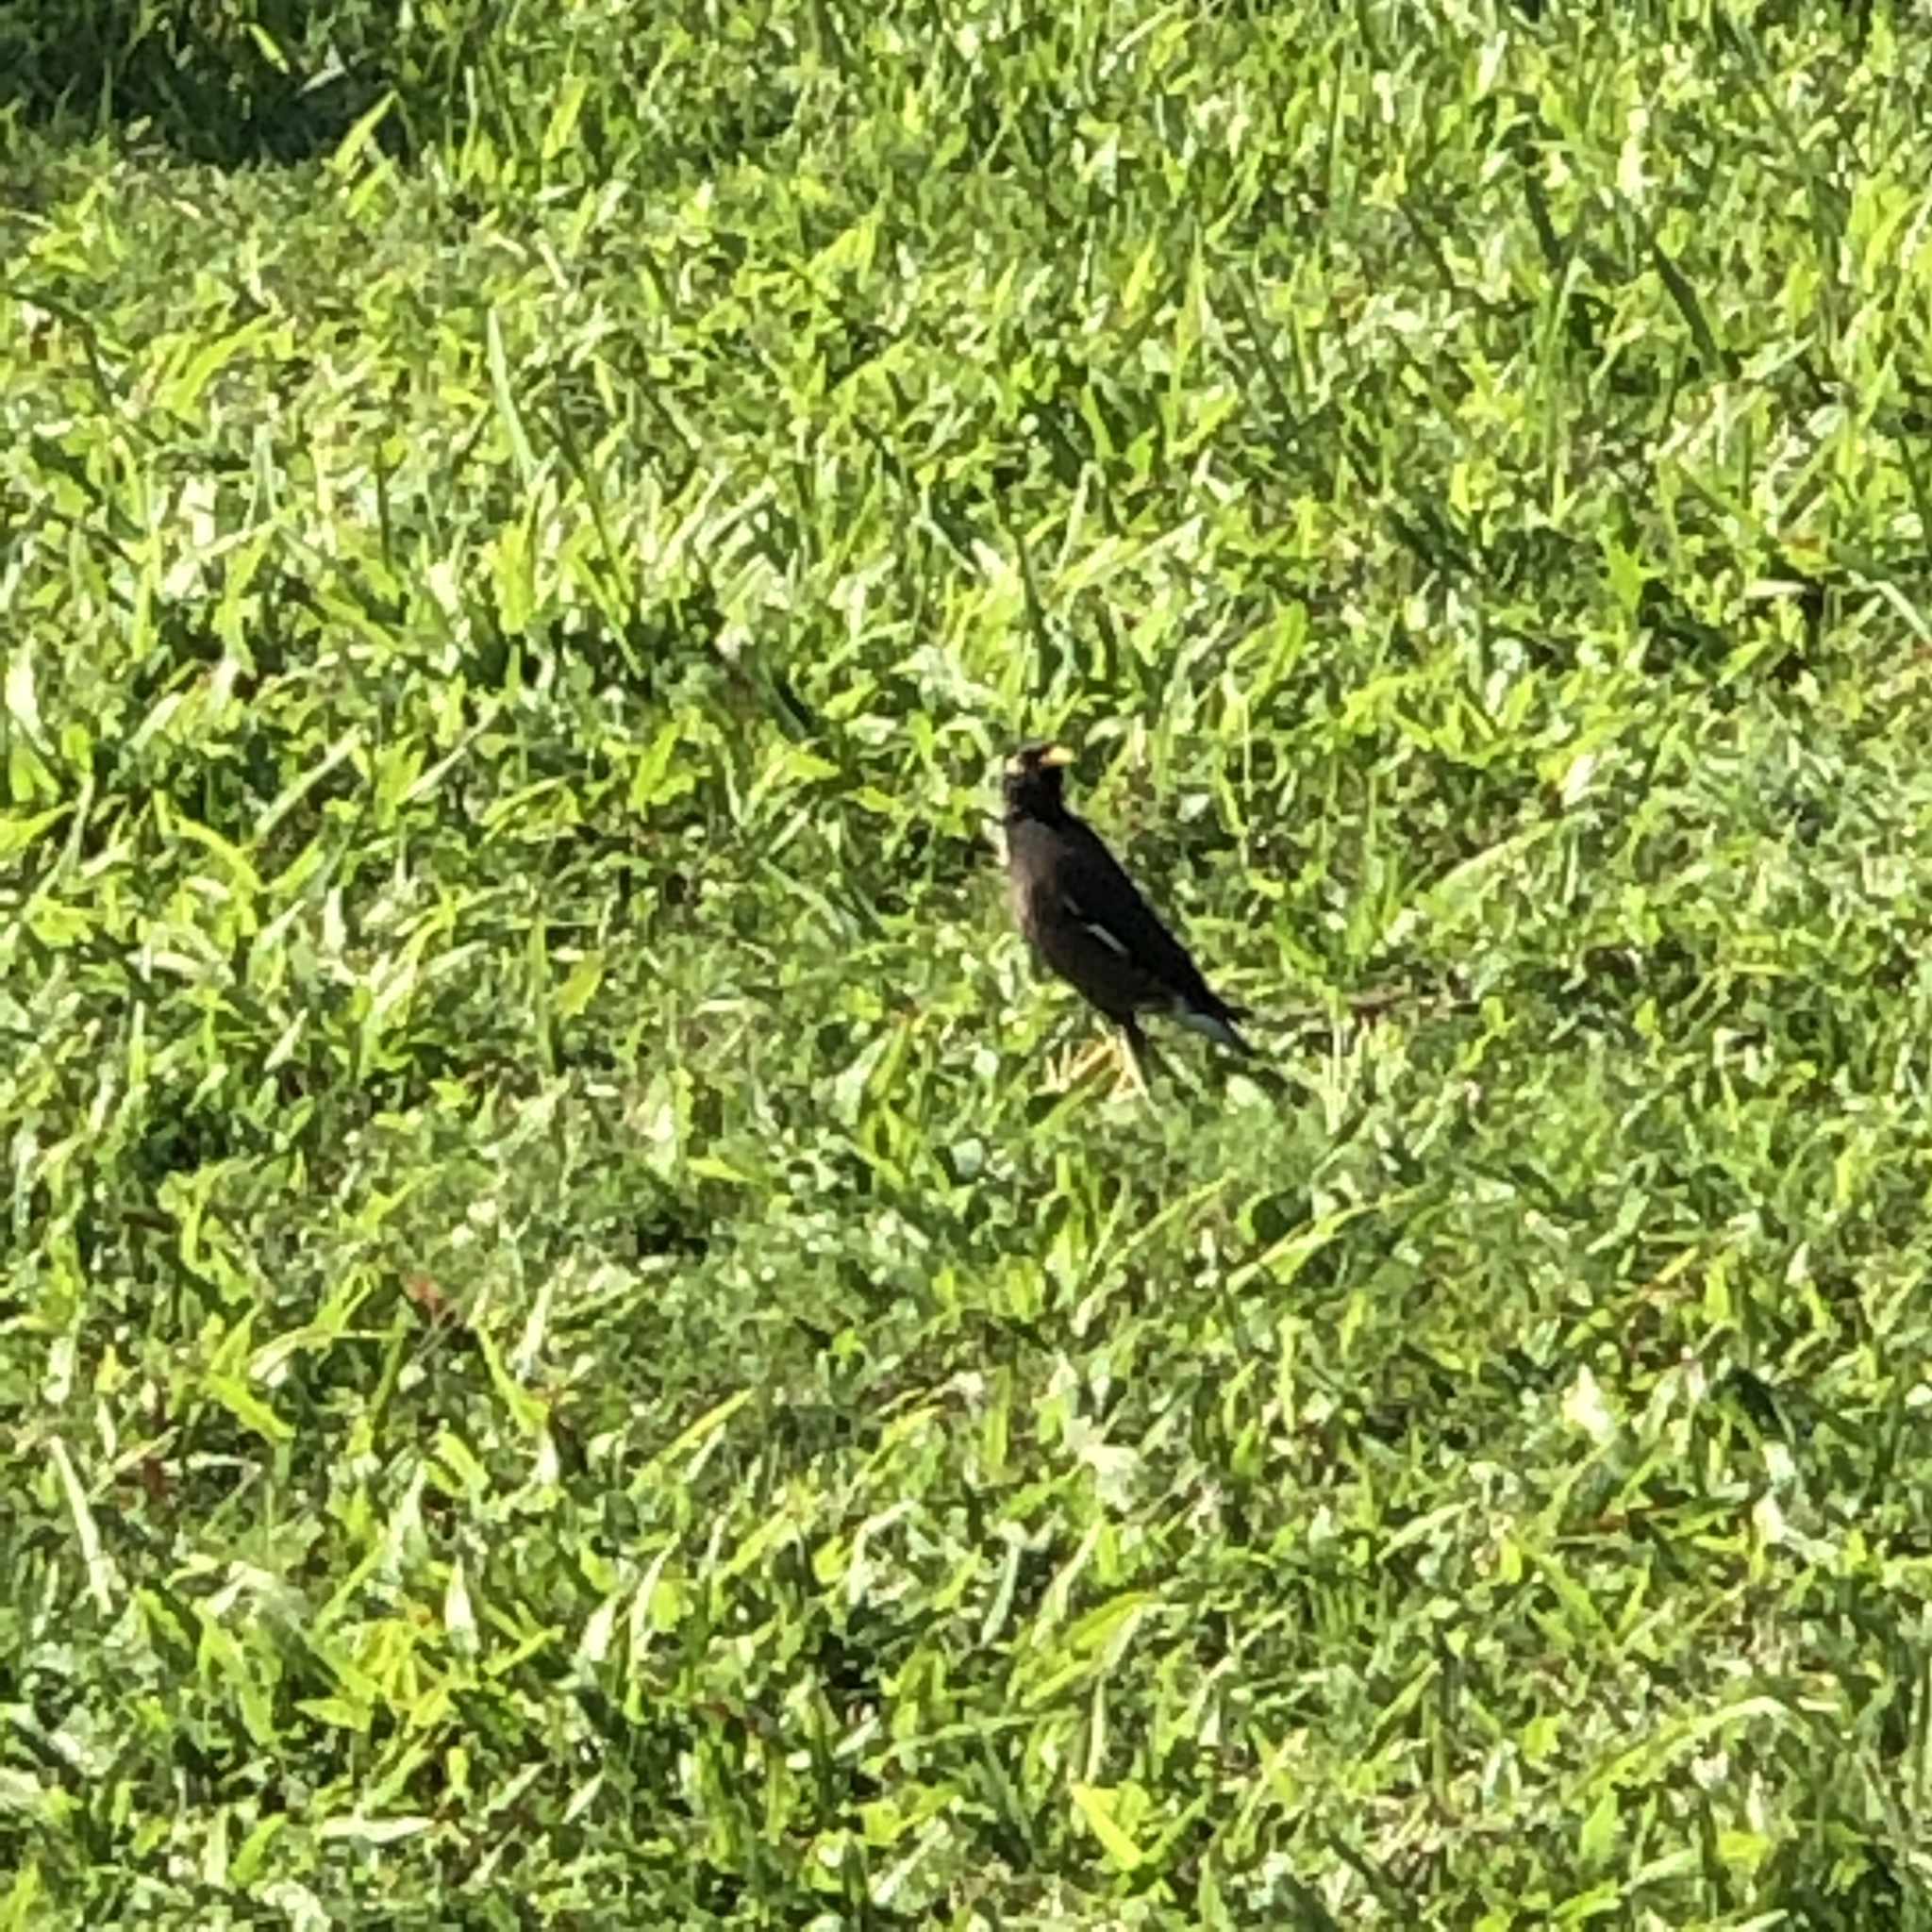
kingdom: Animalia
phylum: Chordata
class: Aves
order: Passeriformes
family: Sturnidae
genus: Acridotheres
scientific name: Acridotheres tristis
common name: Common myna
